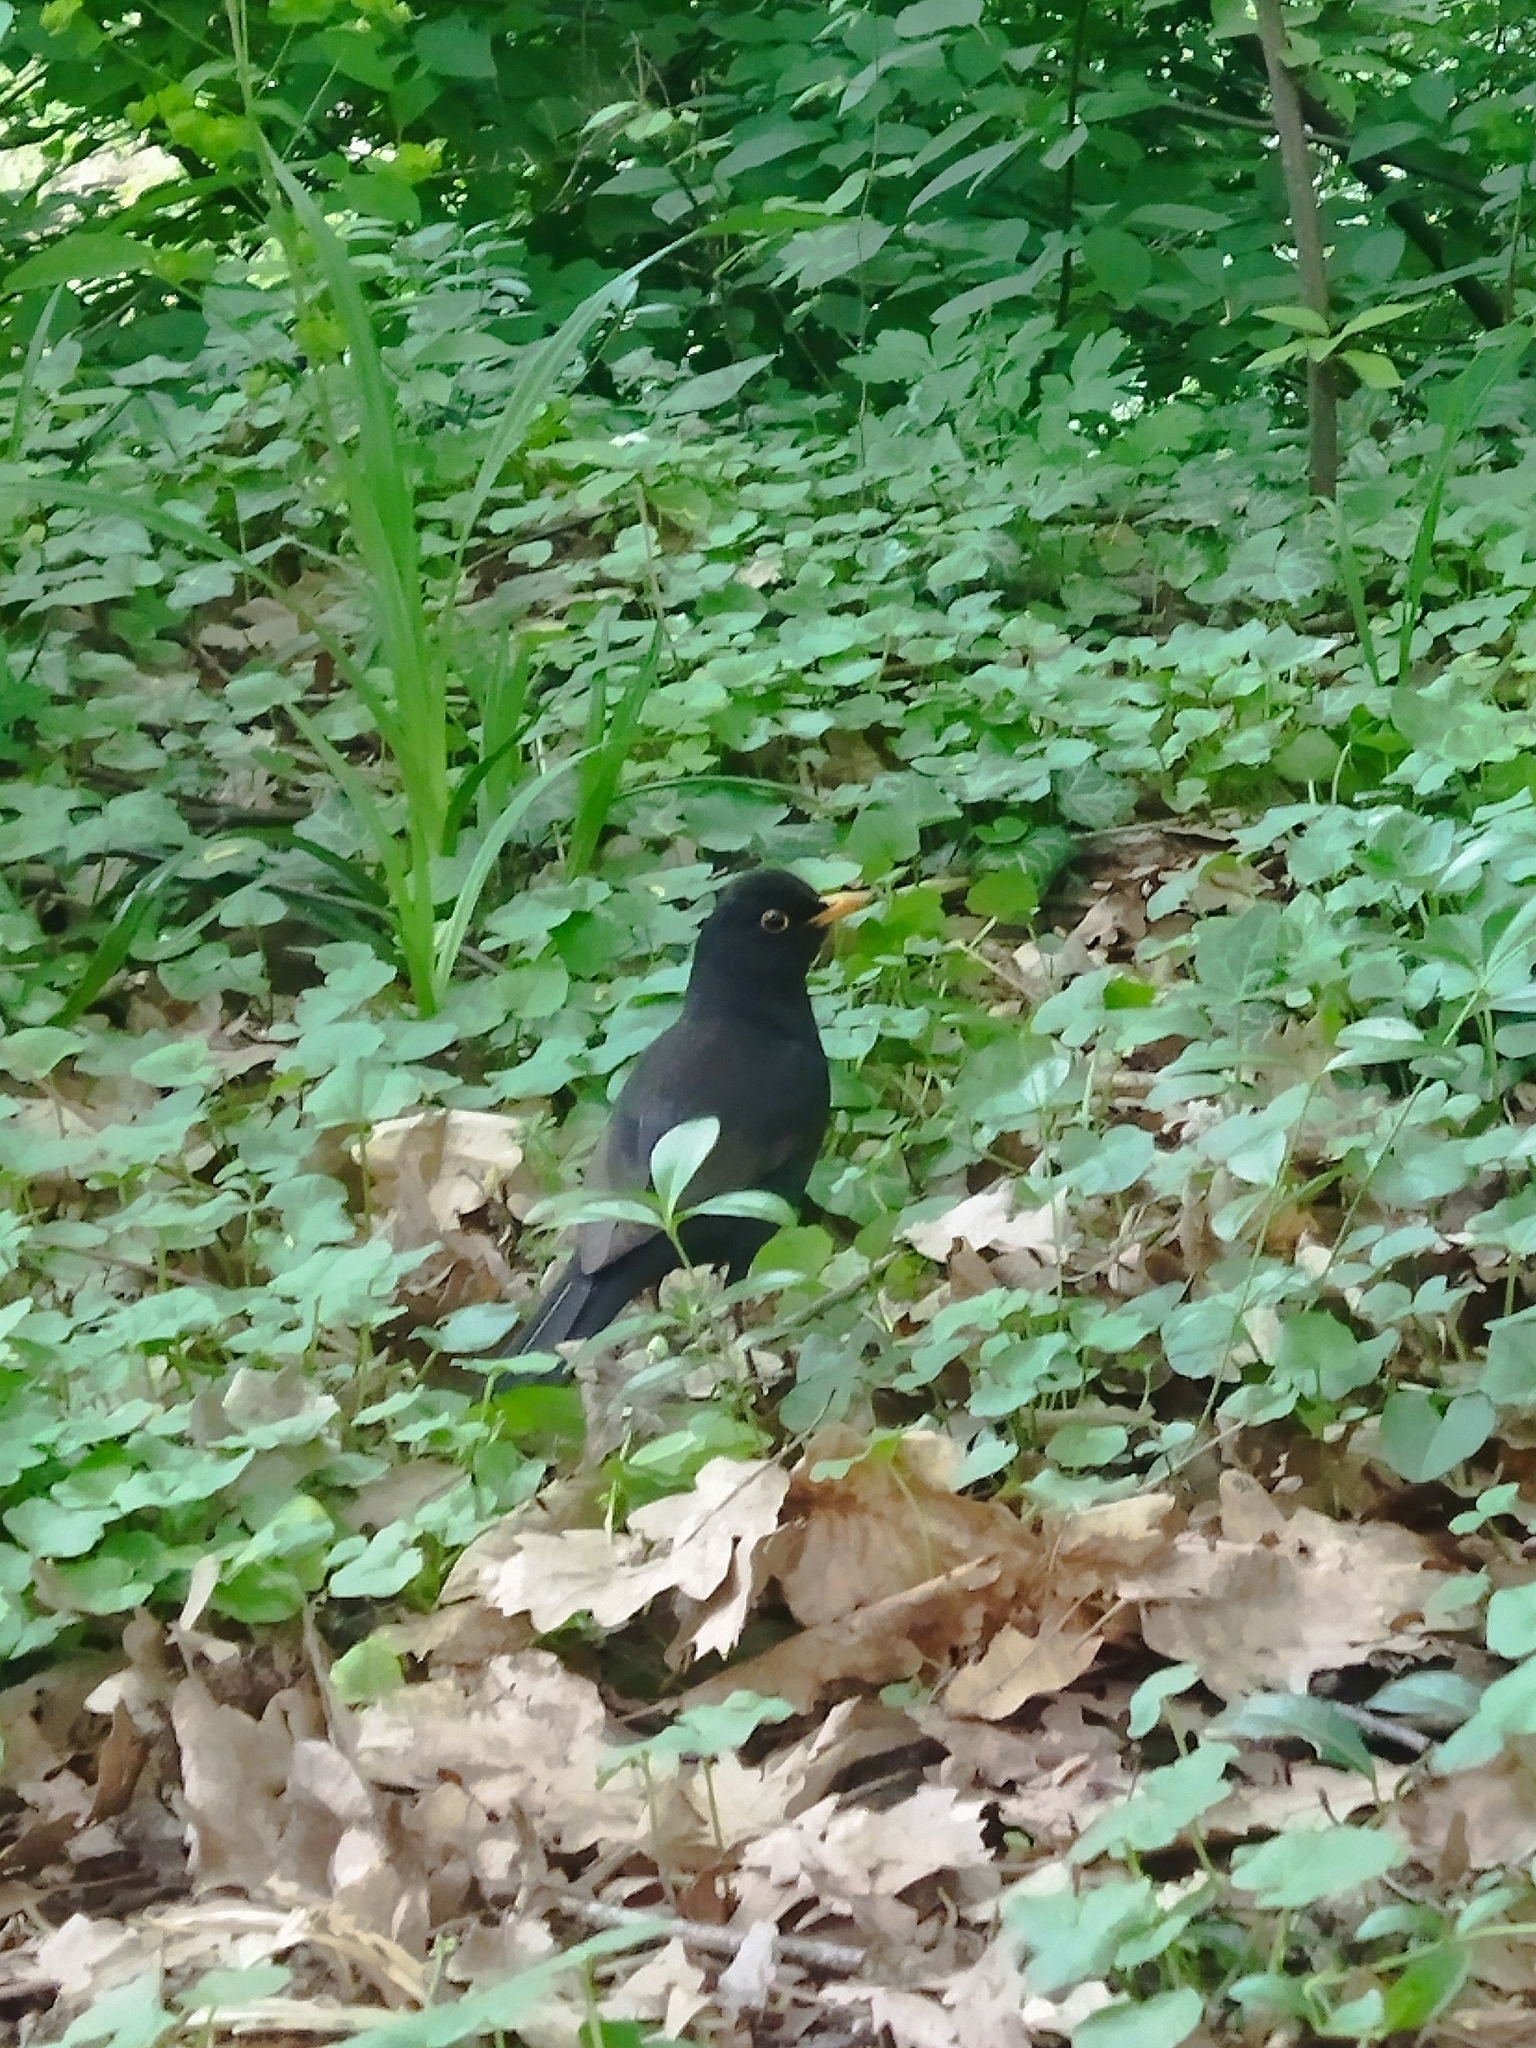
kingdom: Animalia
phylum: Chordata
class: Aves
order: Passeriformes
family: Turdidae
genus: Turdus
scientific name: Turdus merula
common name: Common blackbird
